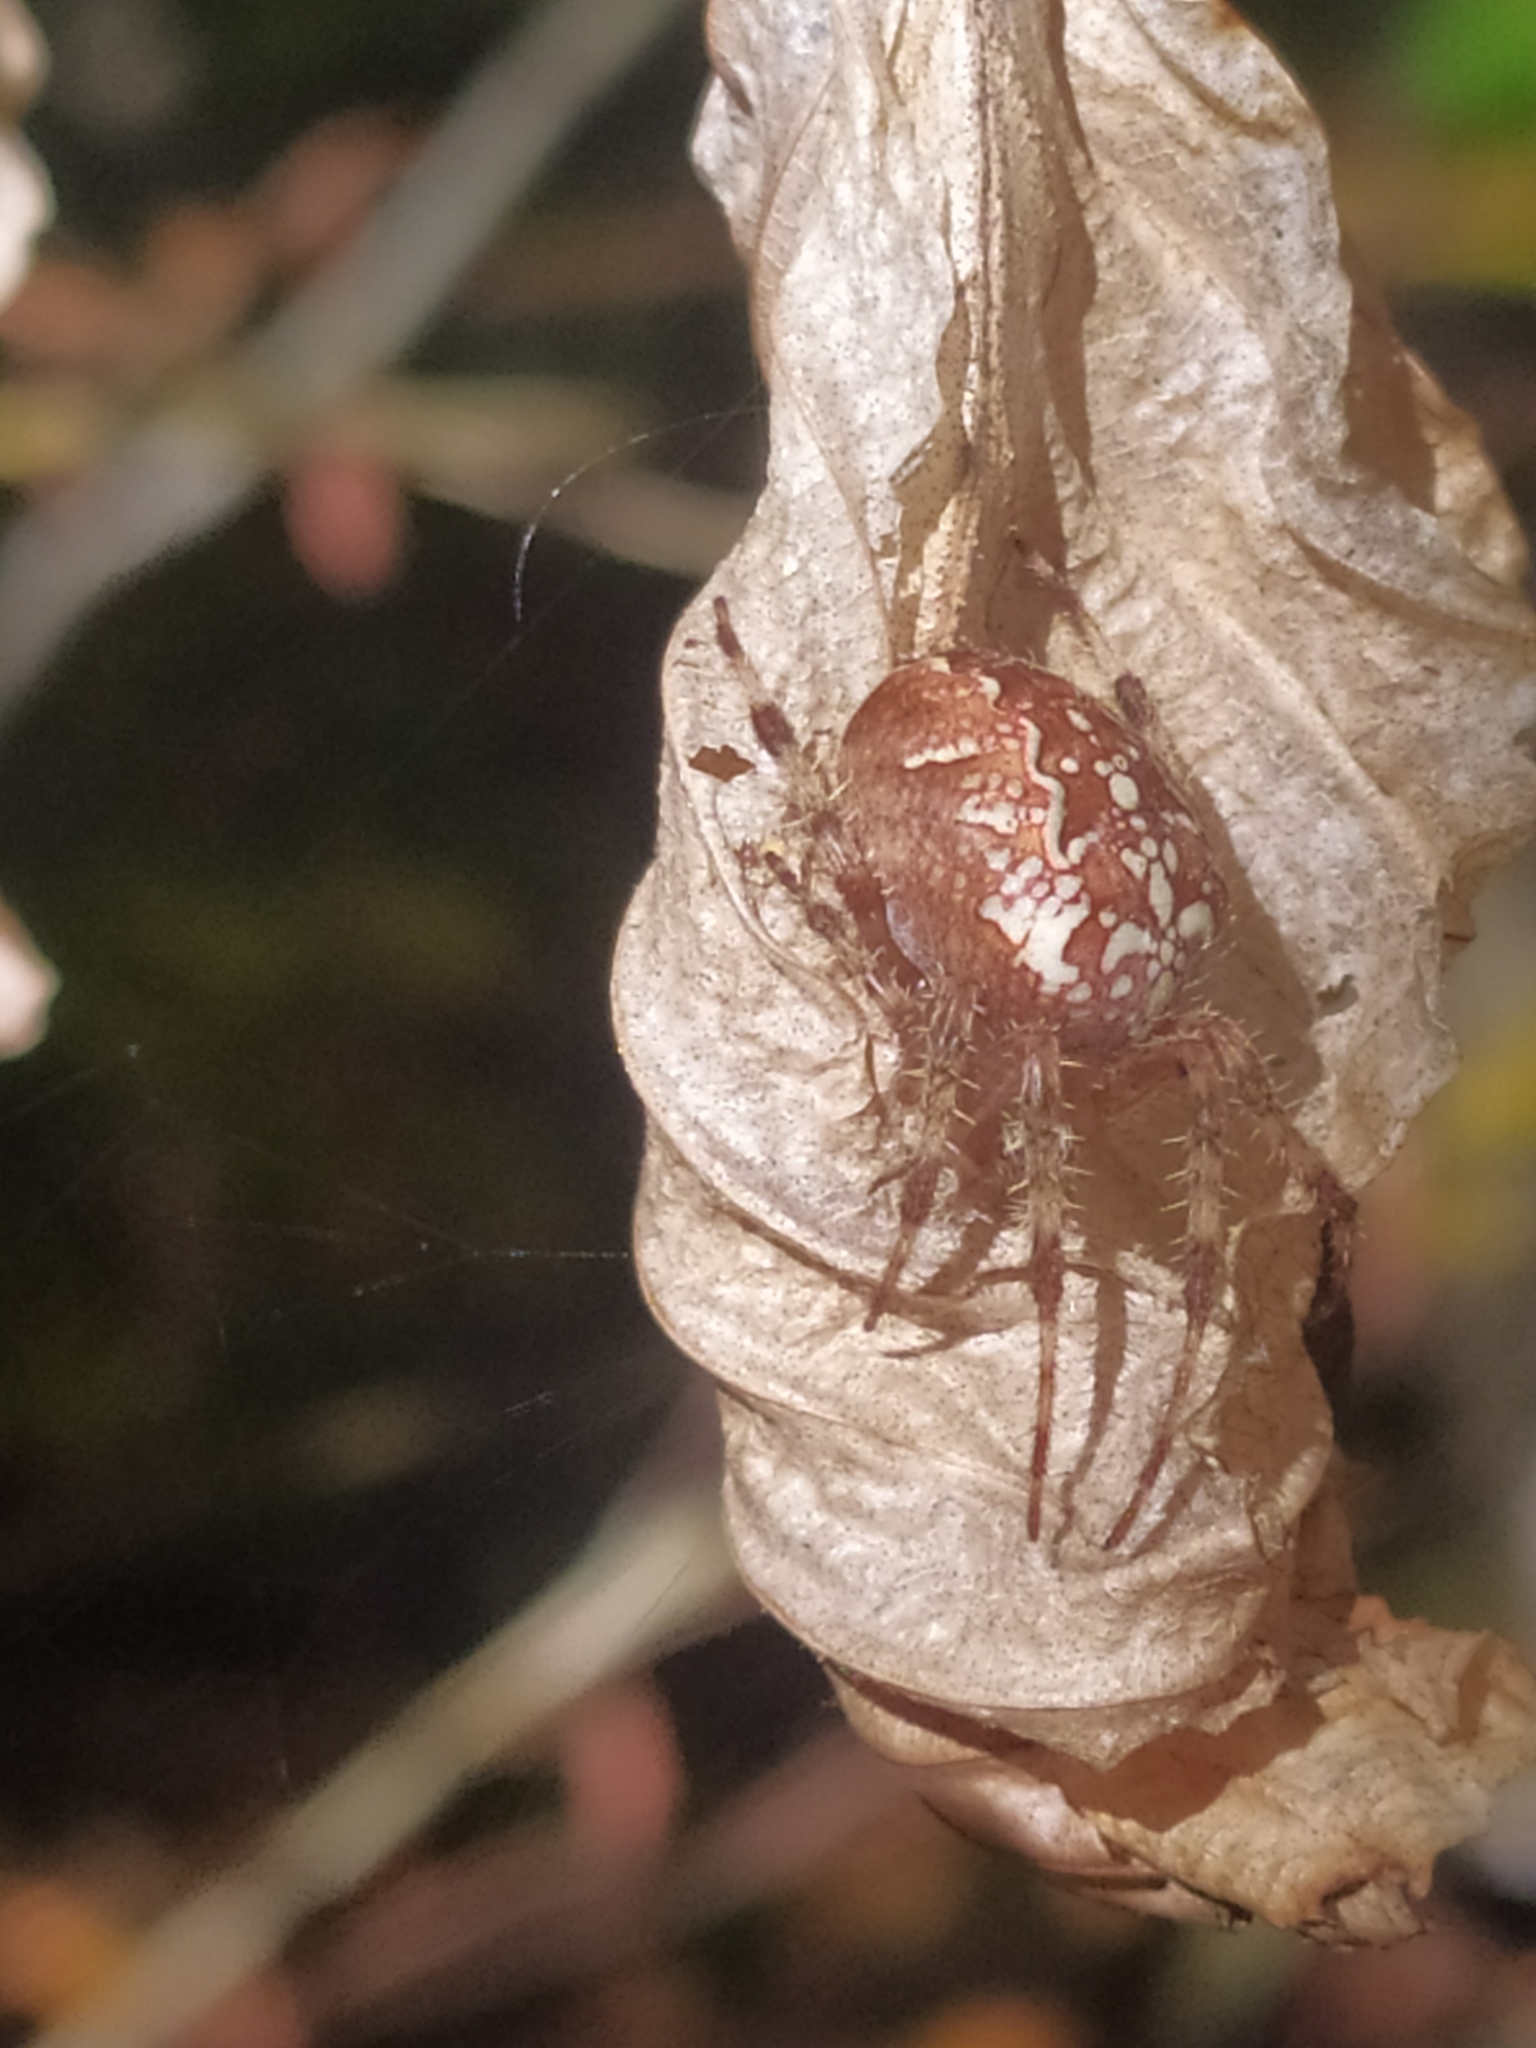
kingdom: Animalia
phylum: Arthropoda
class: Arachnida
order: Araneae
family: Araneidae
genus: Araneus
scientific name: Araneus diadematus
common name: Cross orbweaver
